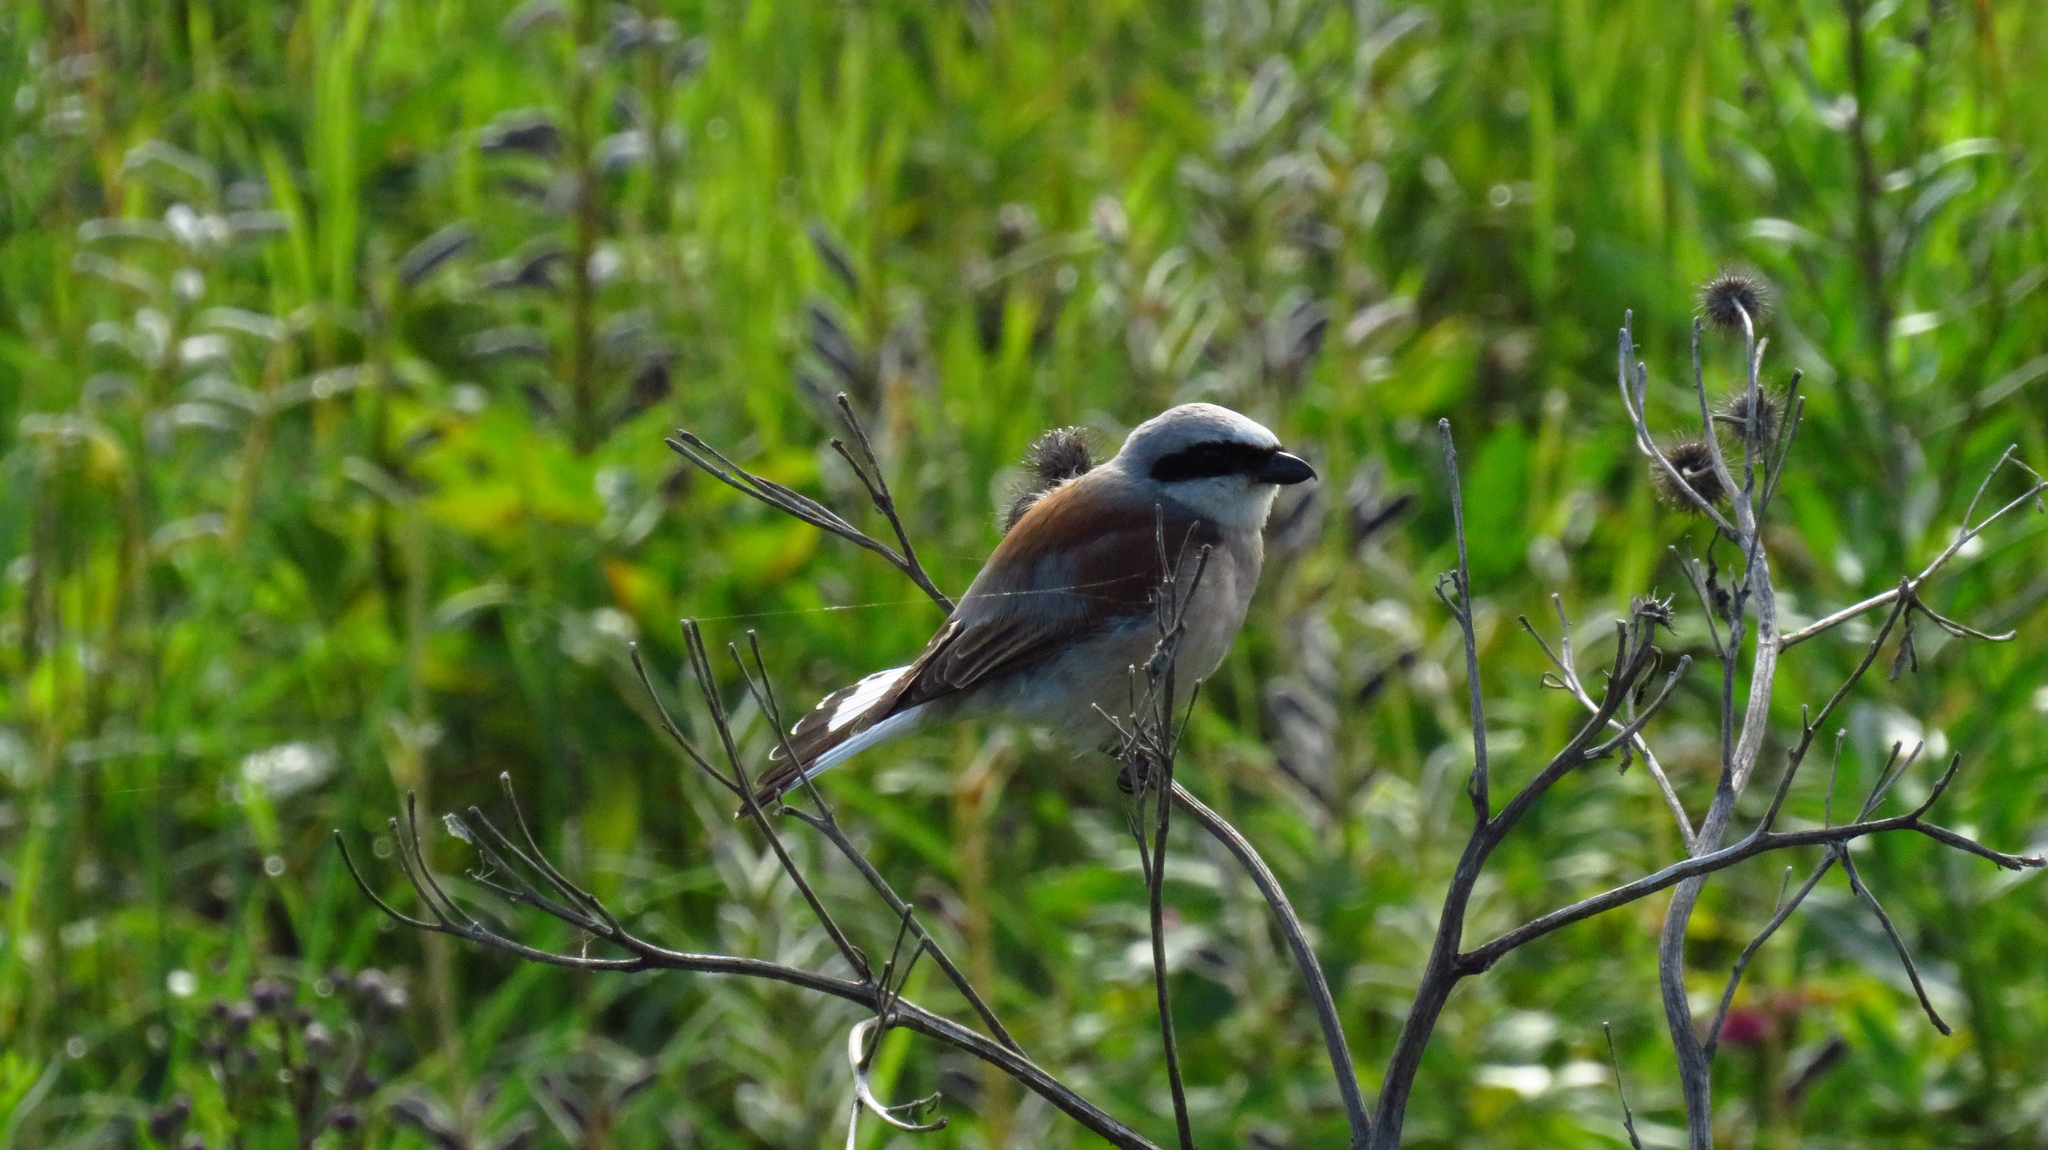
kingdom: Animalia
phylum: Chordata
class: Aves
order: Passeriformes
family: Laniidae
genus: Lanius
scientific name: Lanius collurio
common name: Red-backed shrike
